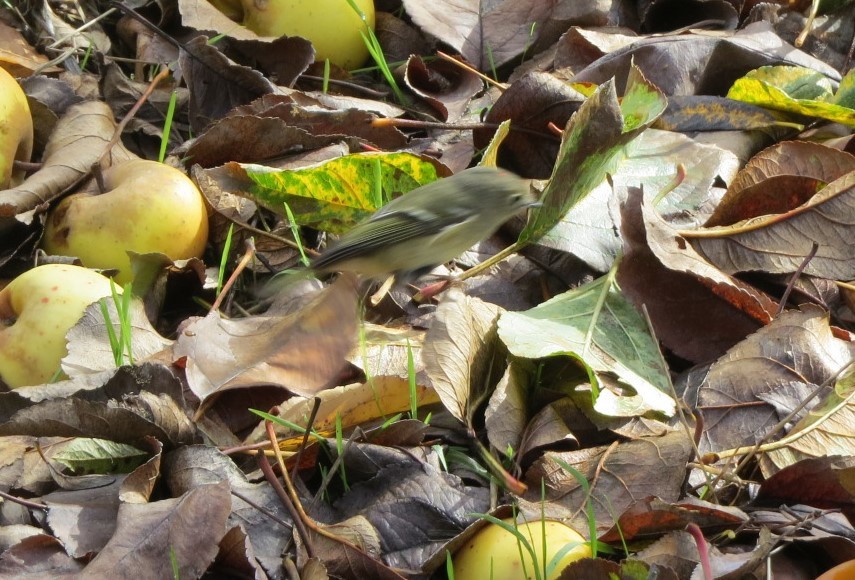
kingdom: Animalia
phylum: Chordata
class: Aves
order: Passeriformes
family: Regulidae
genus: Regulus
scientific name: Regulus calendula
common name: Ruby-crowned kinglet
